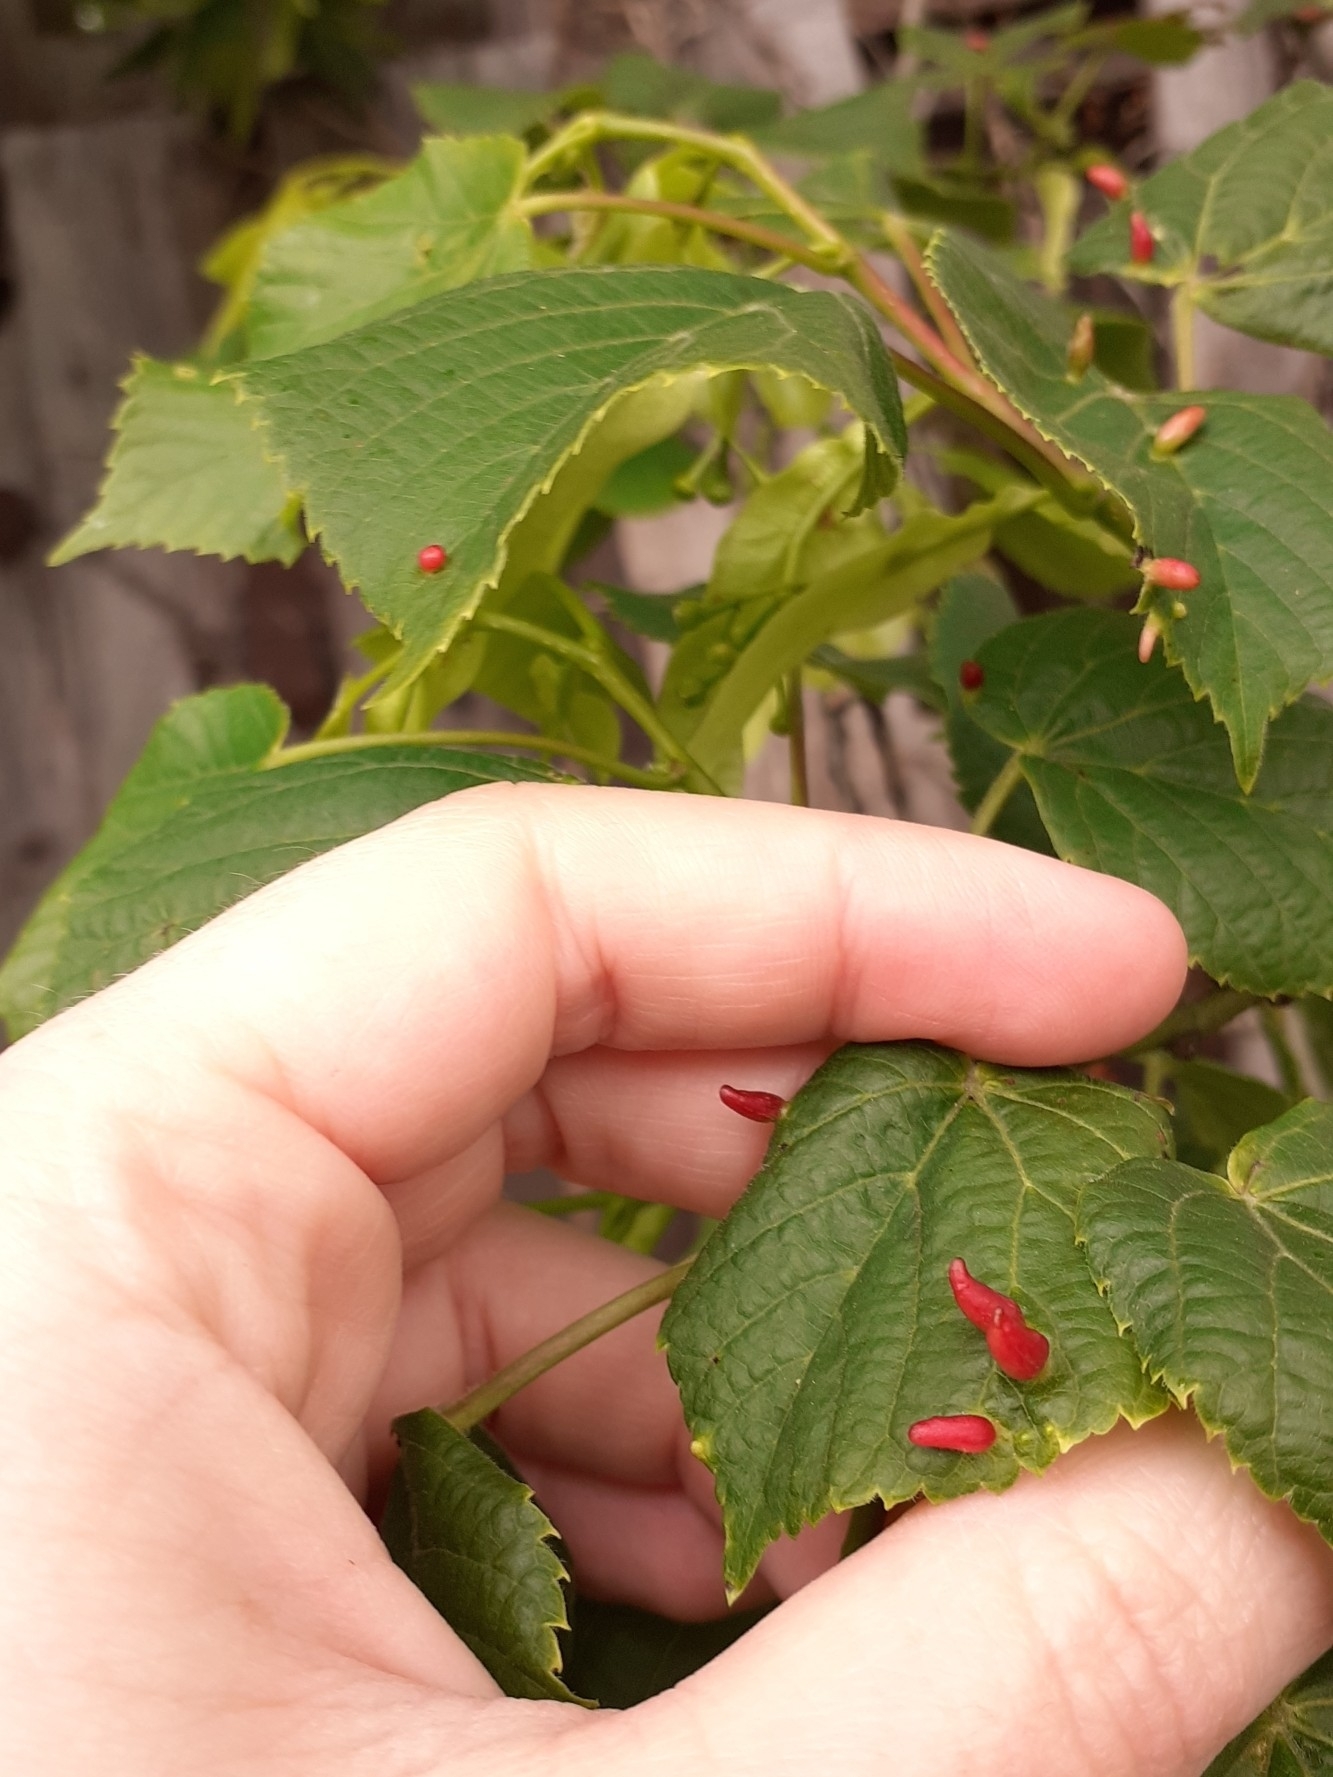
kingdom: Animalia
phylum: Arthropoda
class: Arachnida
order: Trombidiformes
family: Eriophyidae
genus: Eriophyes
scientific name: Eriophyes tiliae
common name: Red nail gall mite
